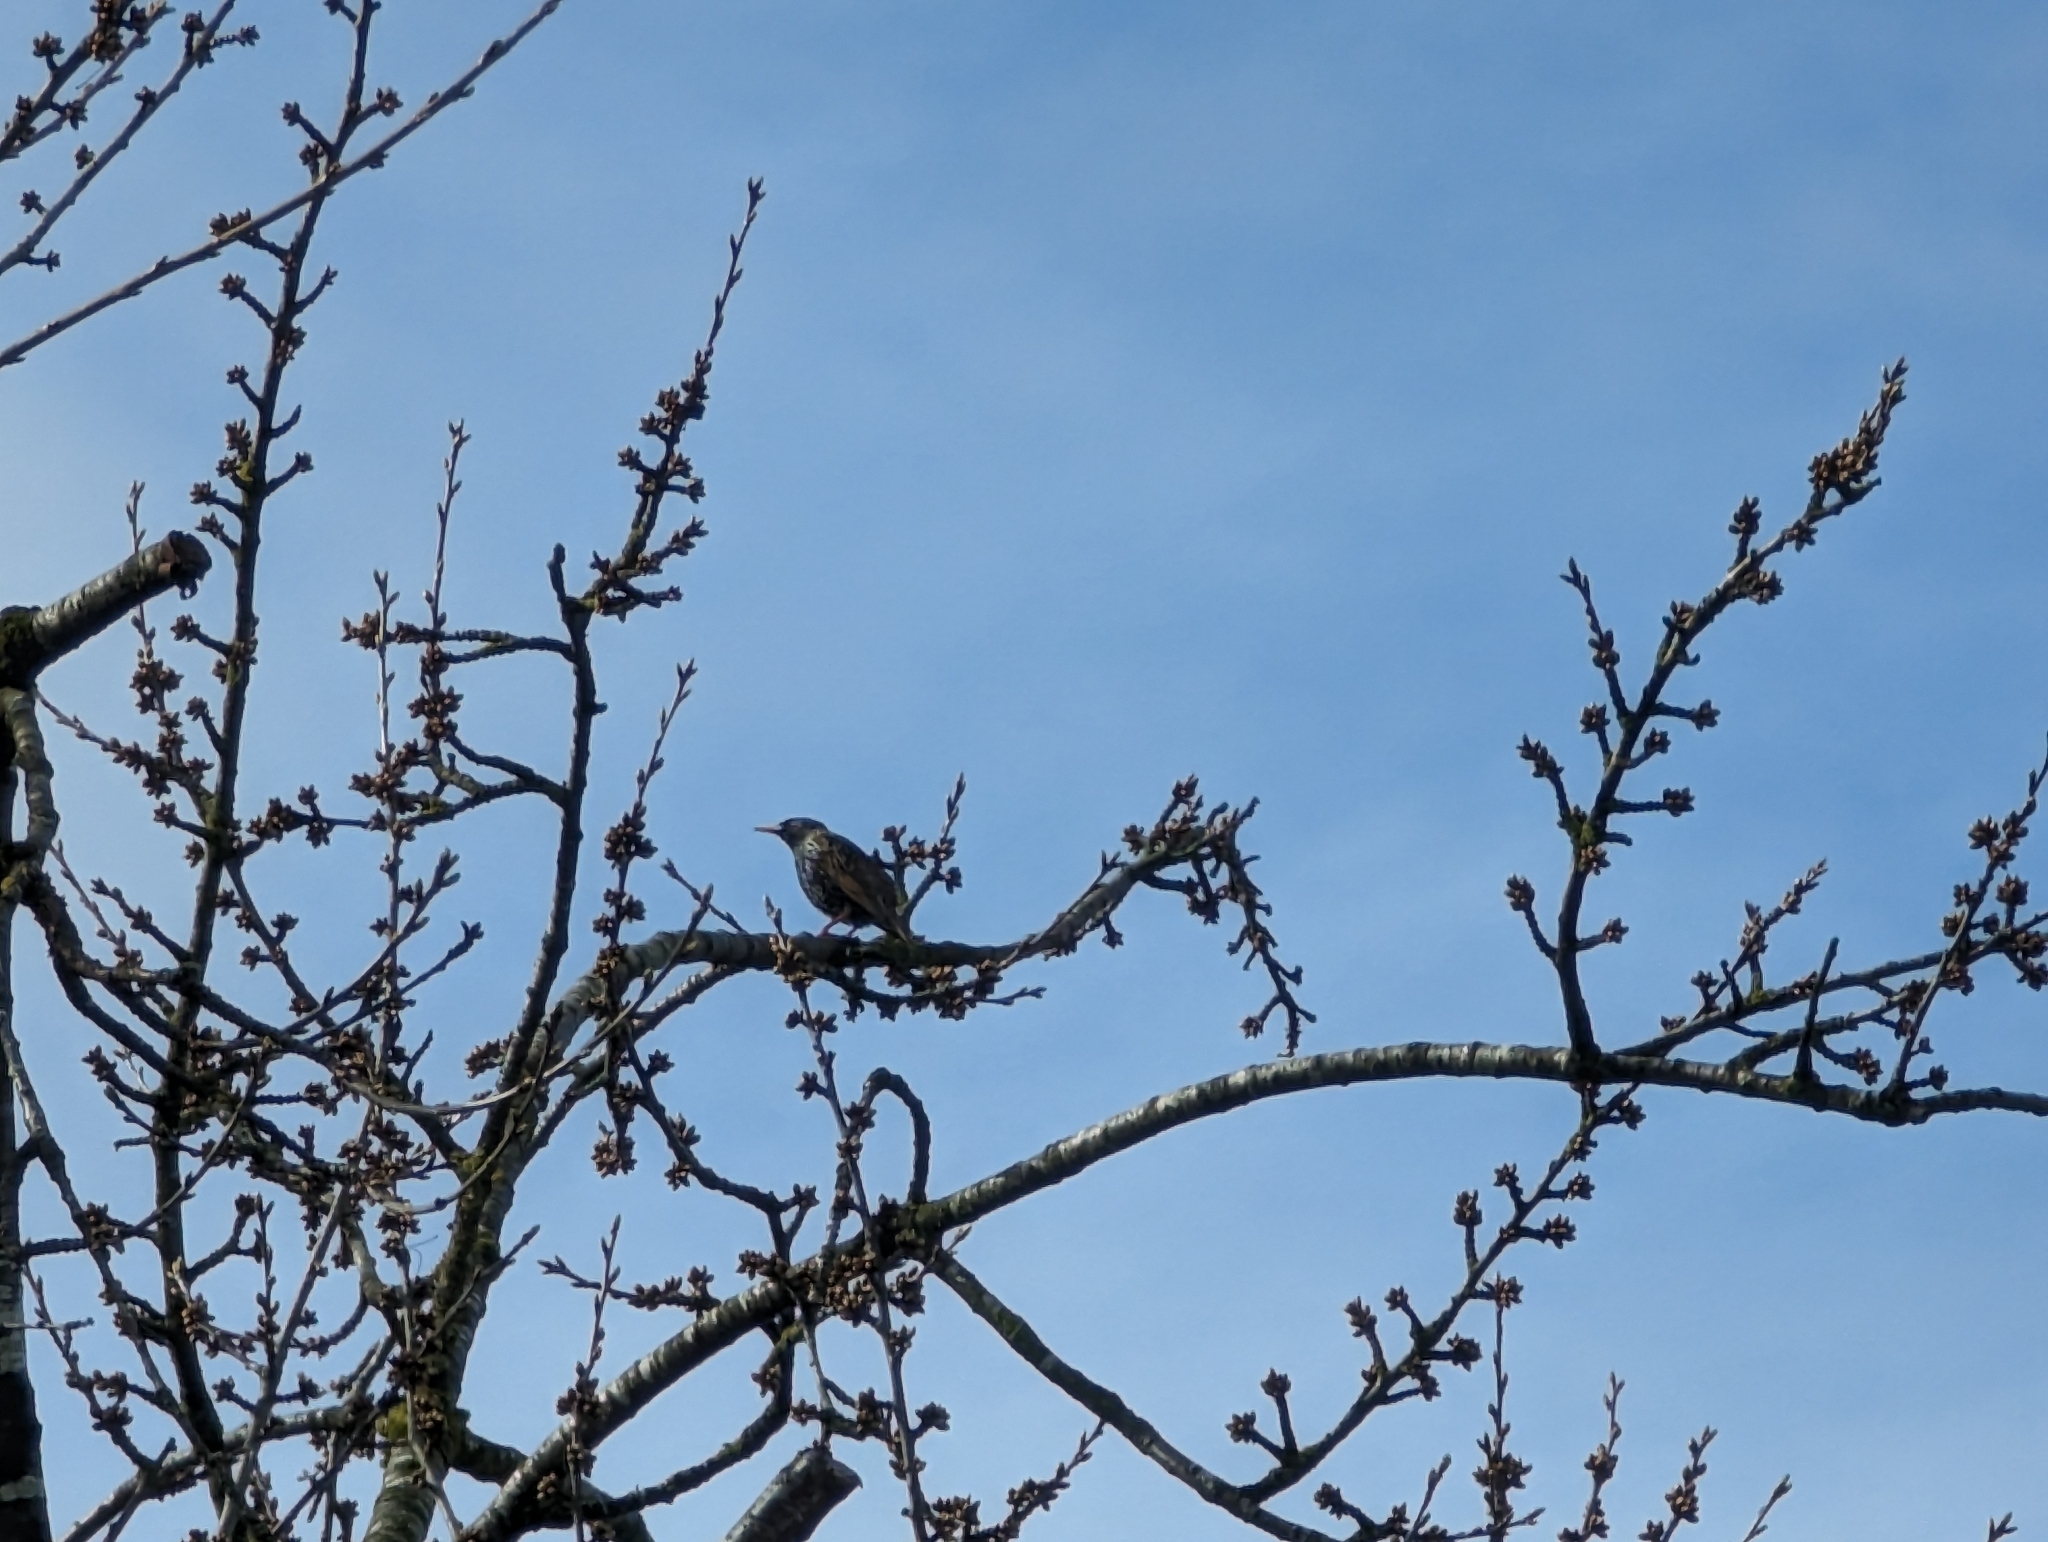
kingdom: Animalia
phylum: Chordata
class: Aves
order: Passeriformes
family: Sturnidae
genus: Sturnus
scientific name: Sturnus vulgaris
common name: Common starling
